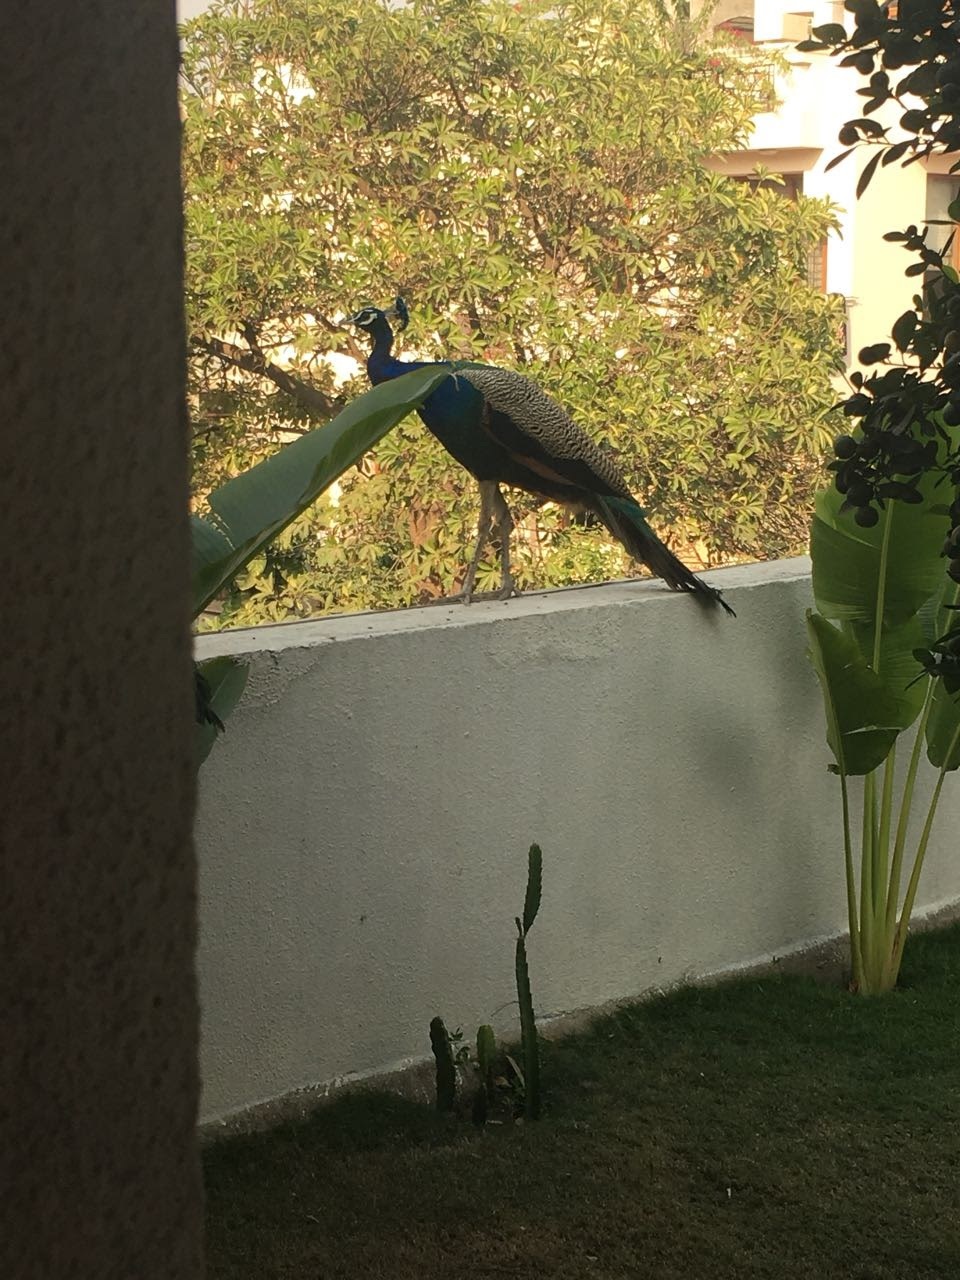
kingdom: Animalia
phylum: Chordata
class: Aves
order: Galliformes
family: Phasianidae
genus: Pavo
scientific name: Pavo cristatus
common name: Indian peafowl
